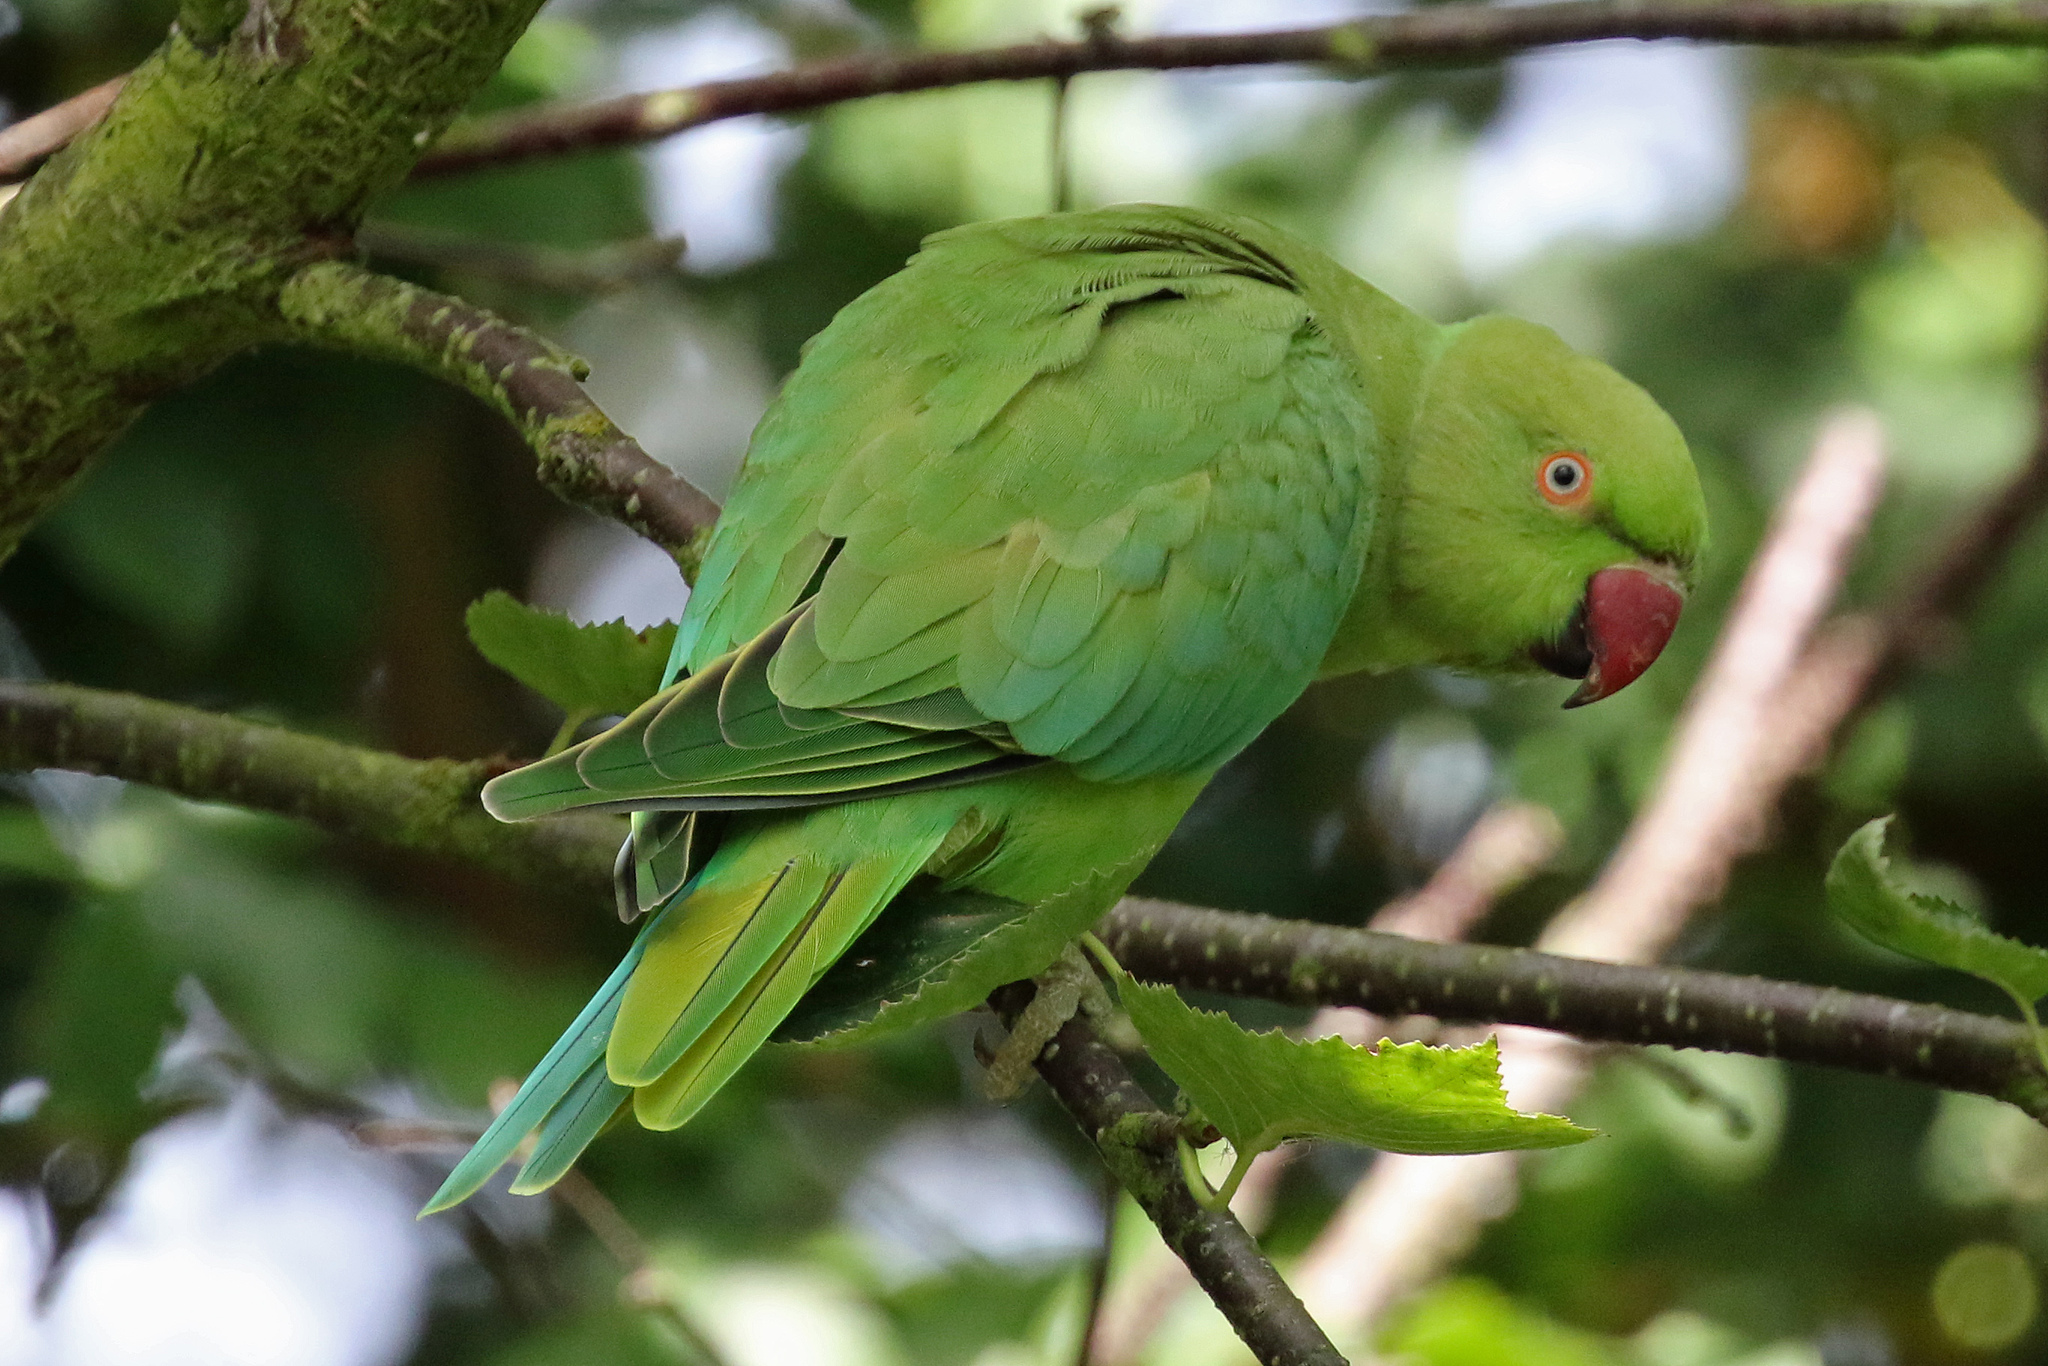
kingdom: Animalia
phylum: Chordata
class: Aves
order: Psittaciformes
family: Psittacidae
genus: Psittacula
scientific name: Psittacula krameri
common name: Rose-ringed parakeet
